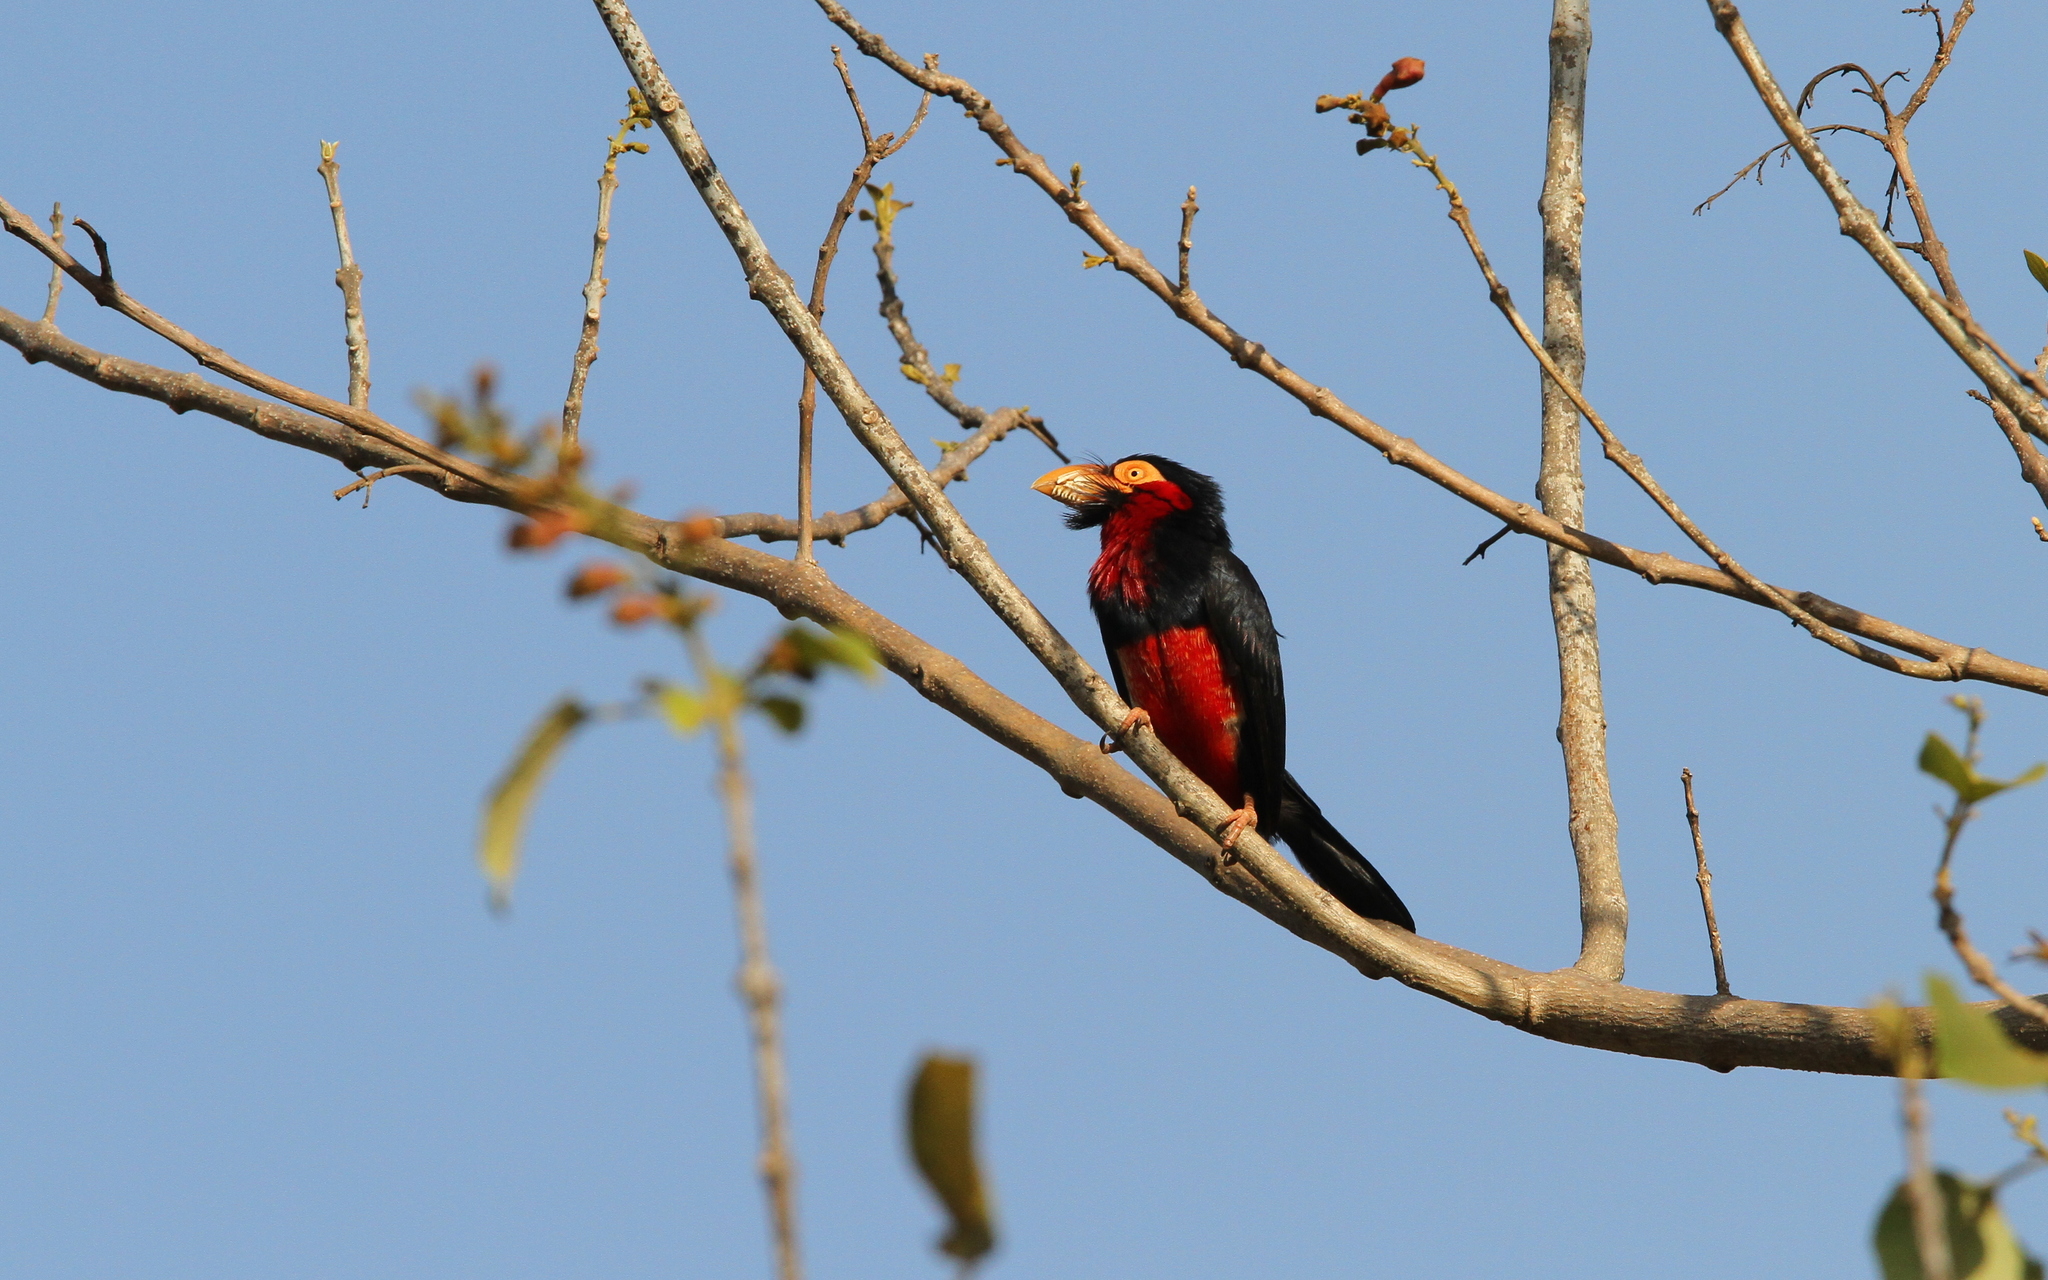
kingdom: Animalia
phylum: Chordata
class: Aves
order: Piciformes
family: Lybiidae
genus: Lybius
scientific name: Lybius dubius
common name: Bearded barbet
